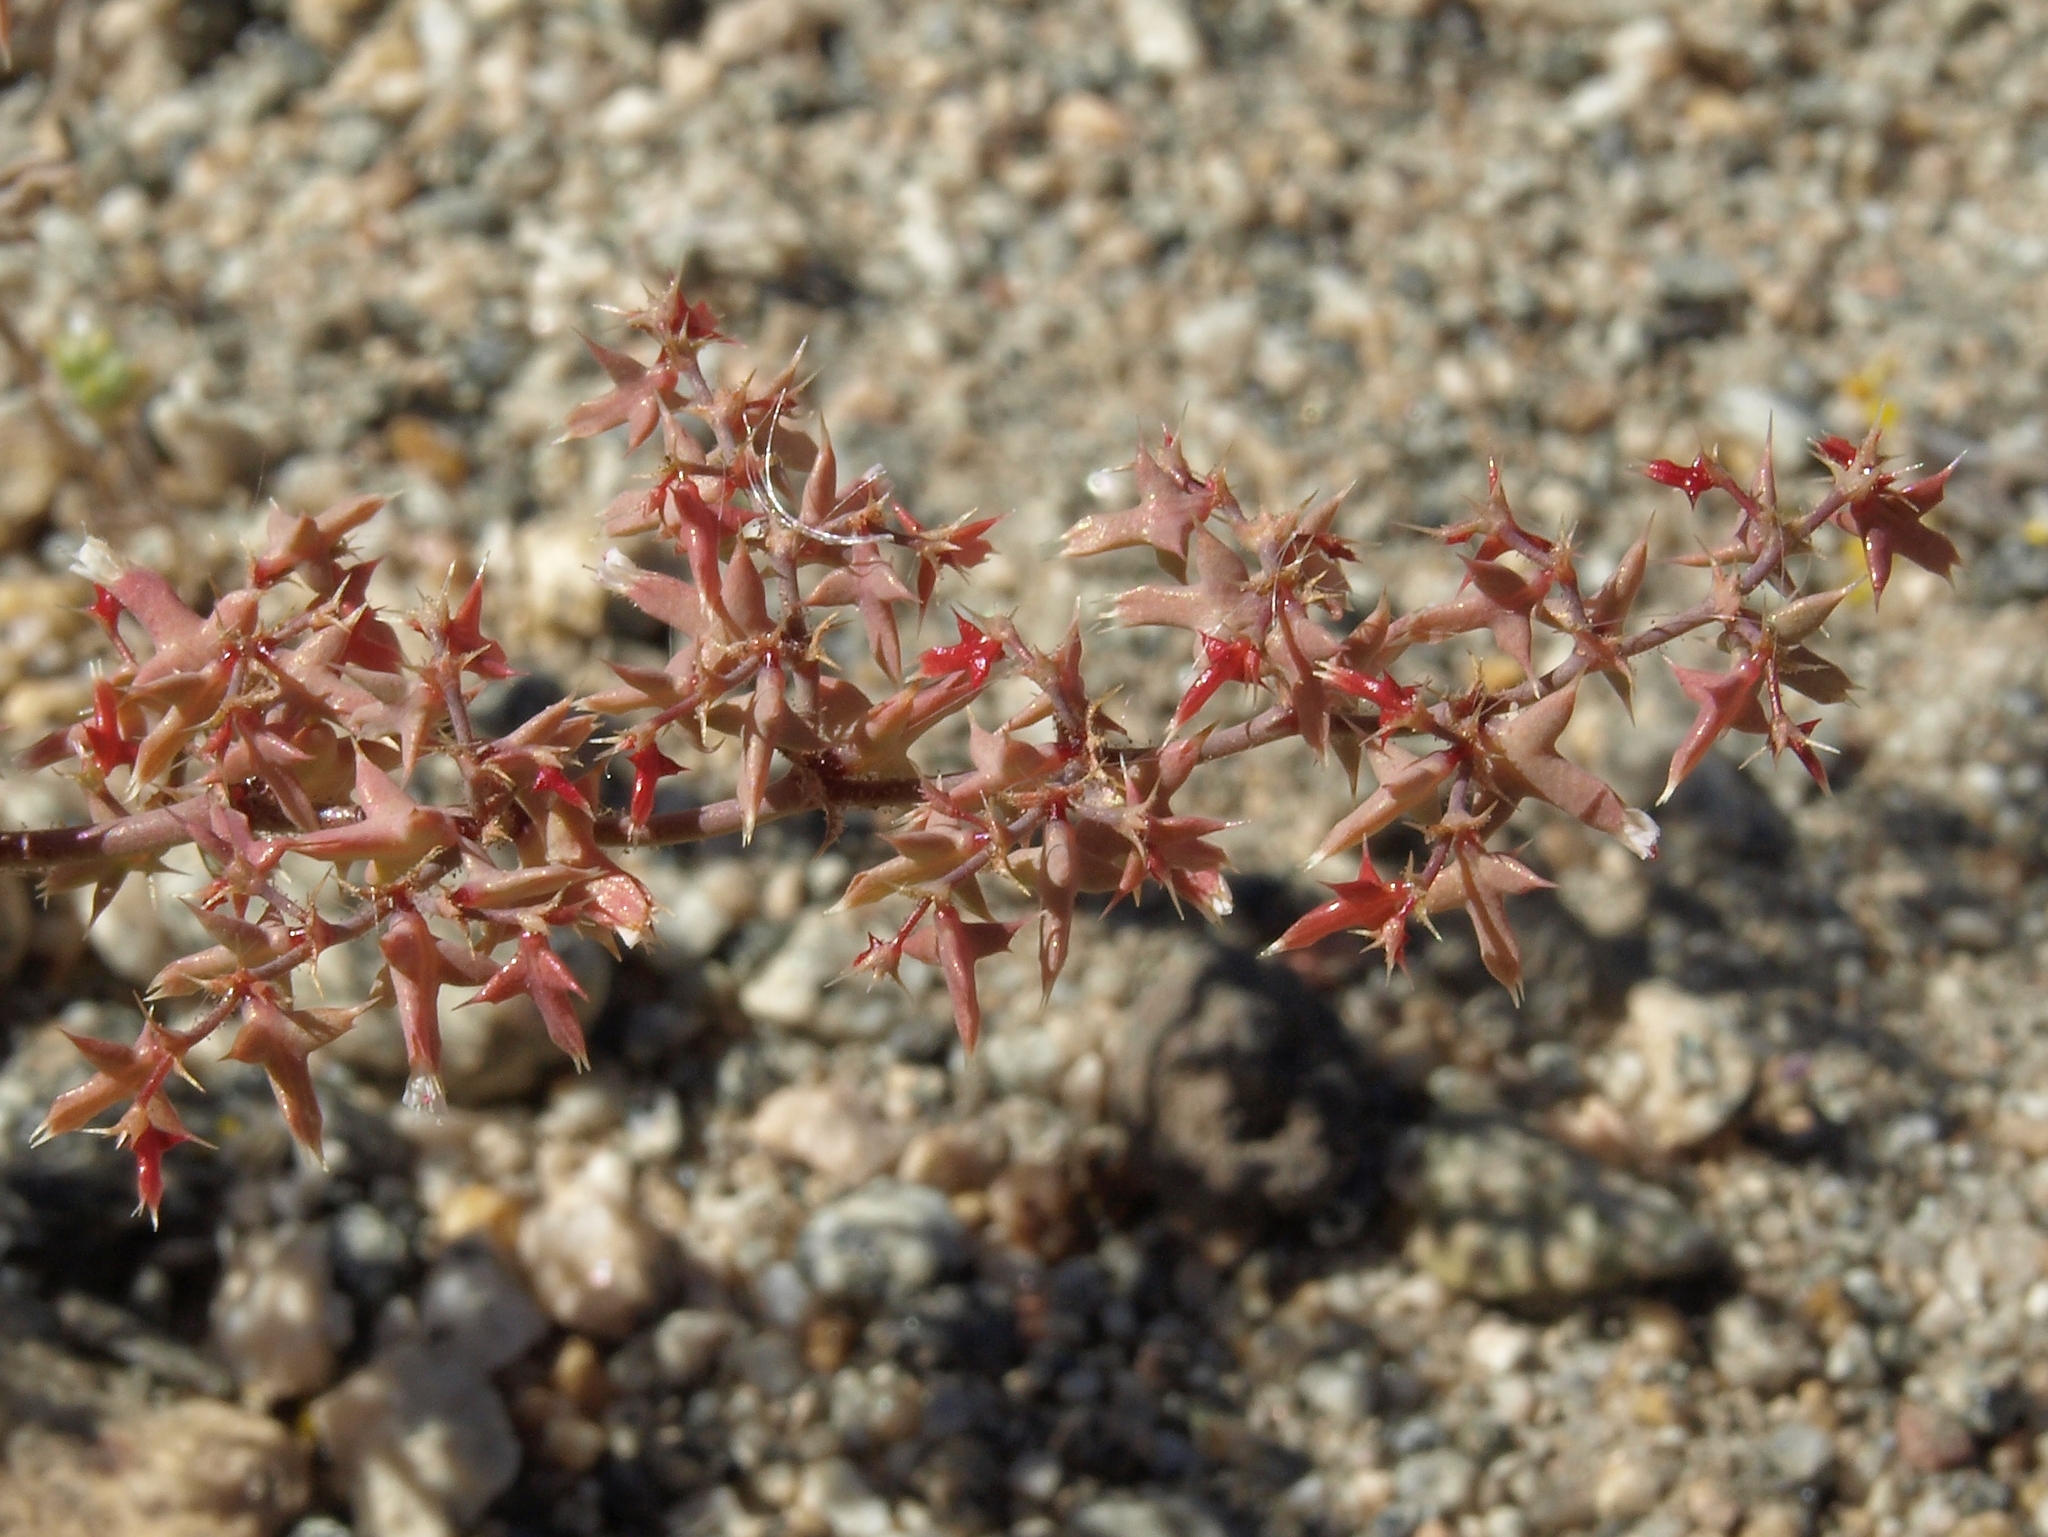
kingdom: Plantae
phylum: Tracheophyta
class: Magnoliopsida
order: Caryophyllales
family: Polygonaceae
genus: Centrostegia
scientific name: Centrostegia thurberi
